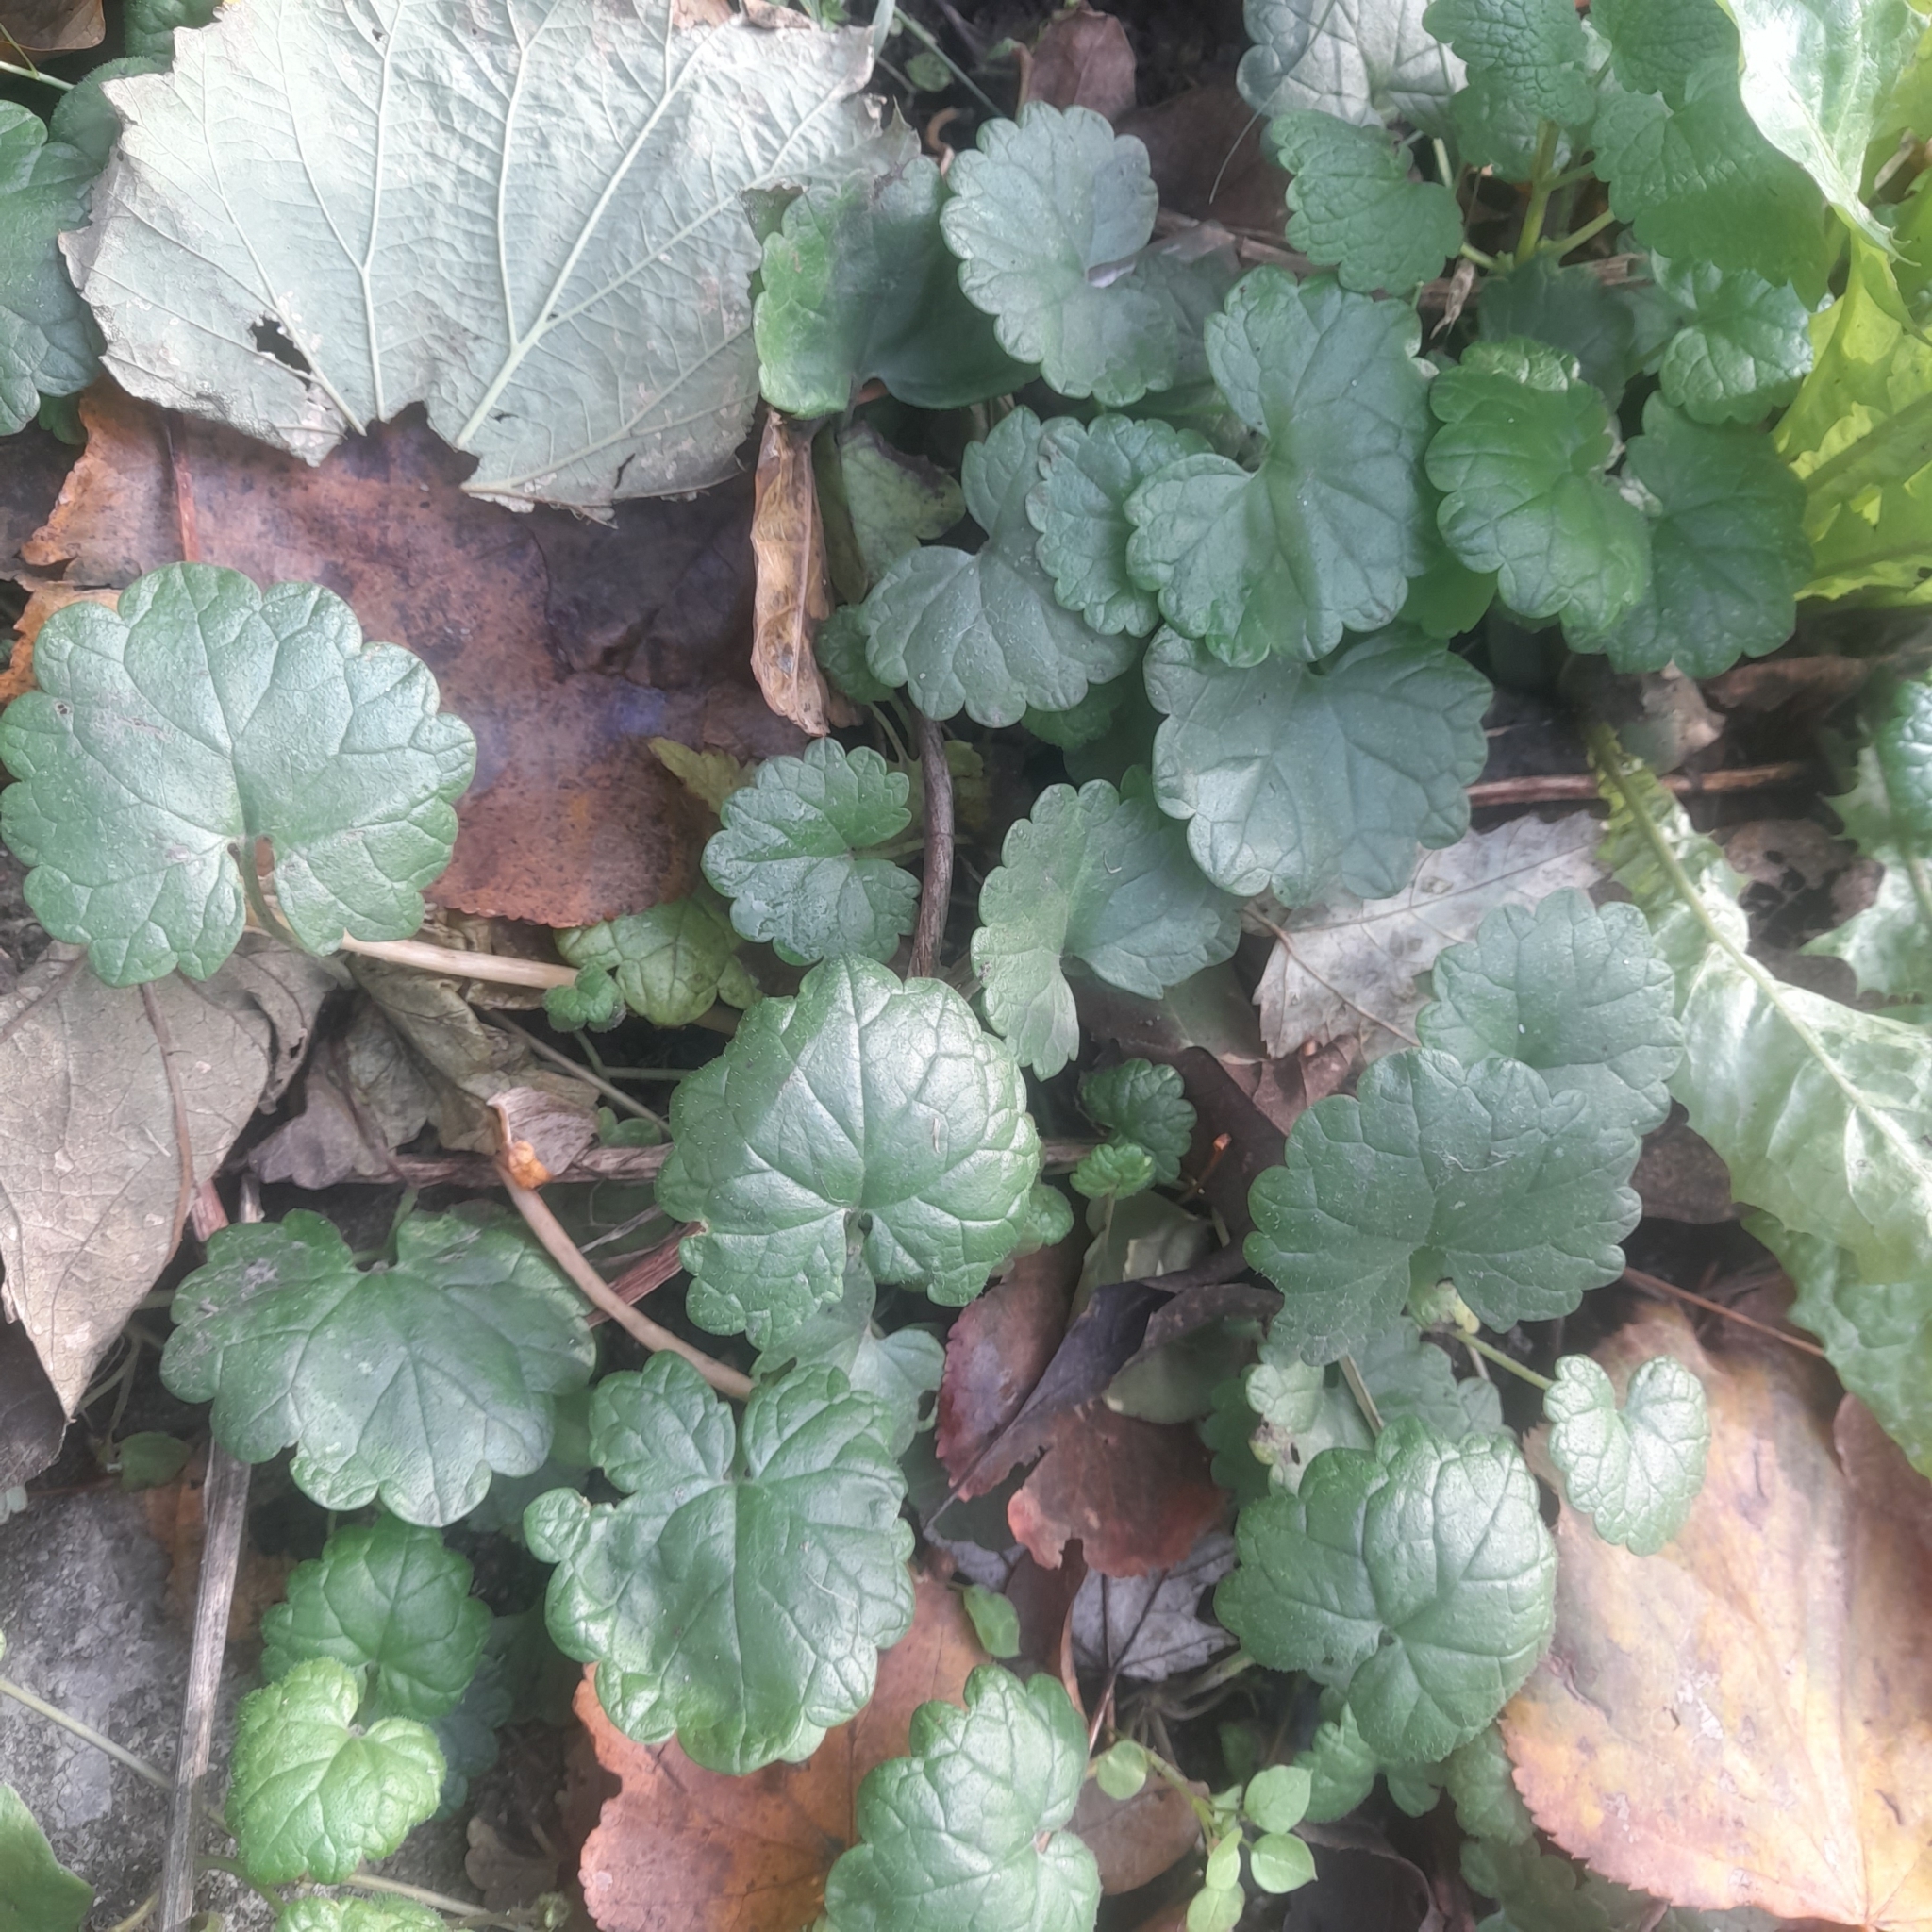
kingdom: Plantae
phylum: Tracheophyta
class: Magnoliopsida
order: Lamiales
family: Lamiaceae
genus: Glechoma
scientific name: Glechoma hederacea
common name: Ground ivy
